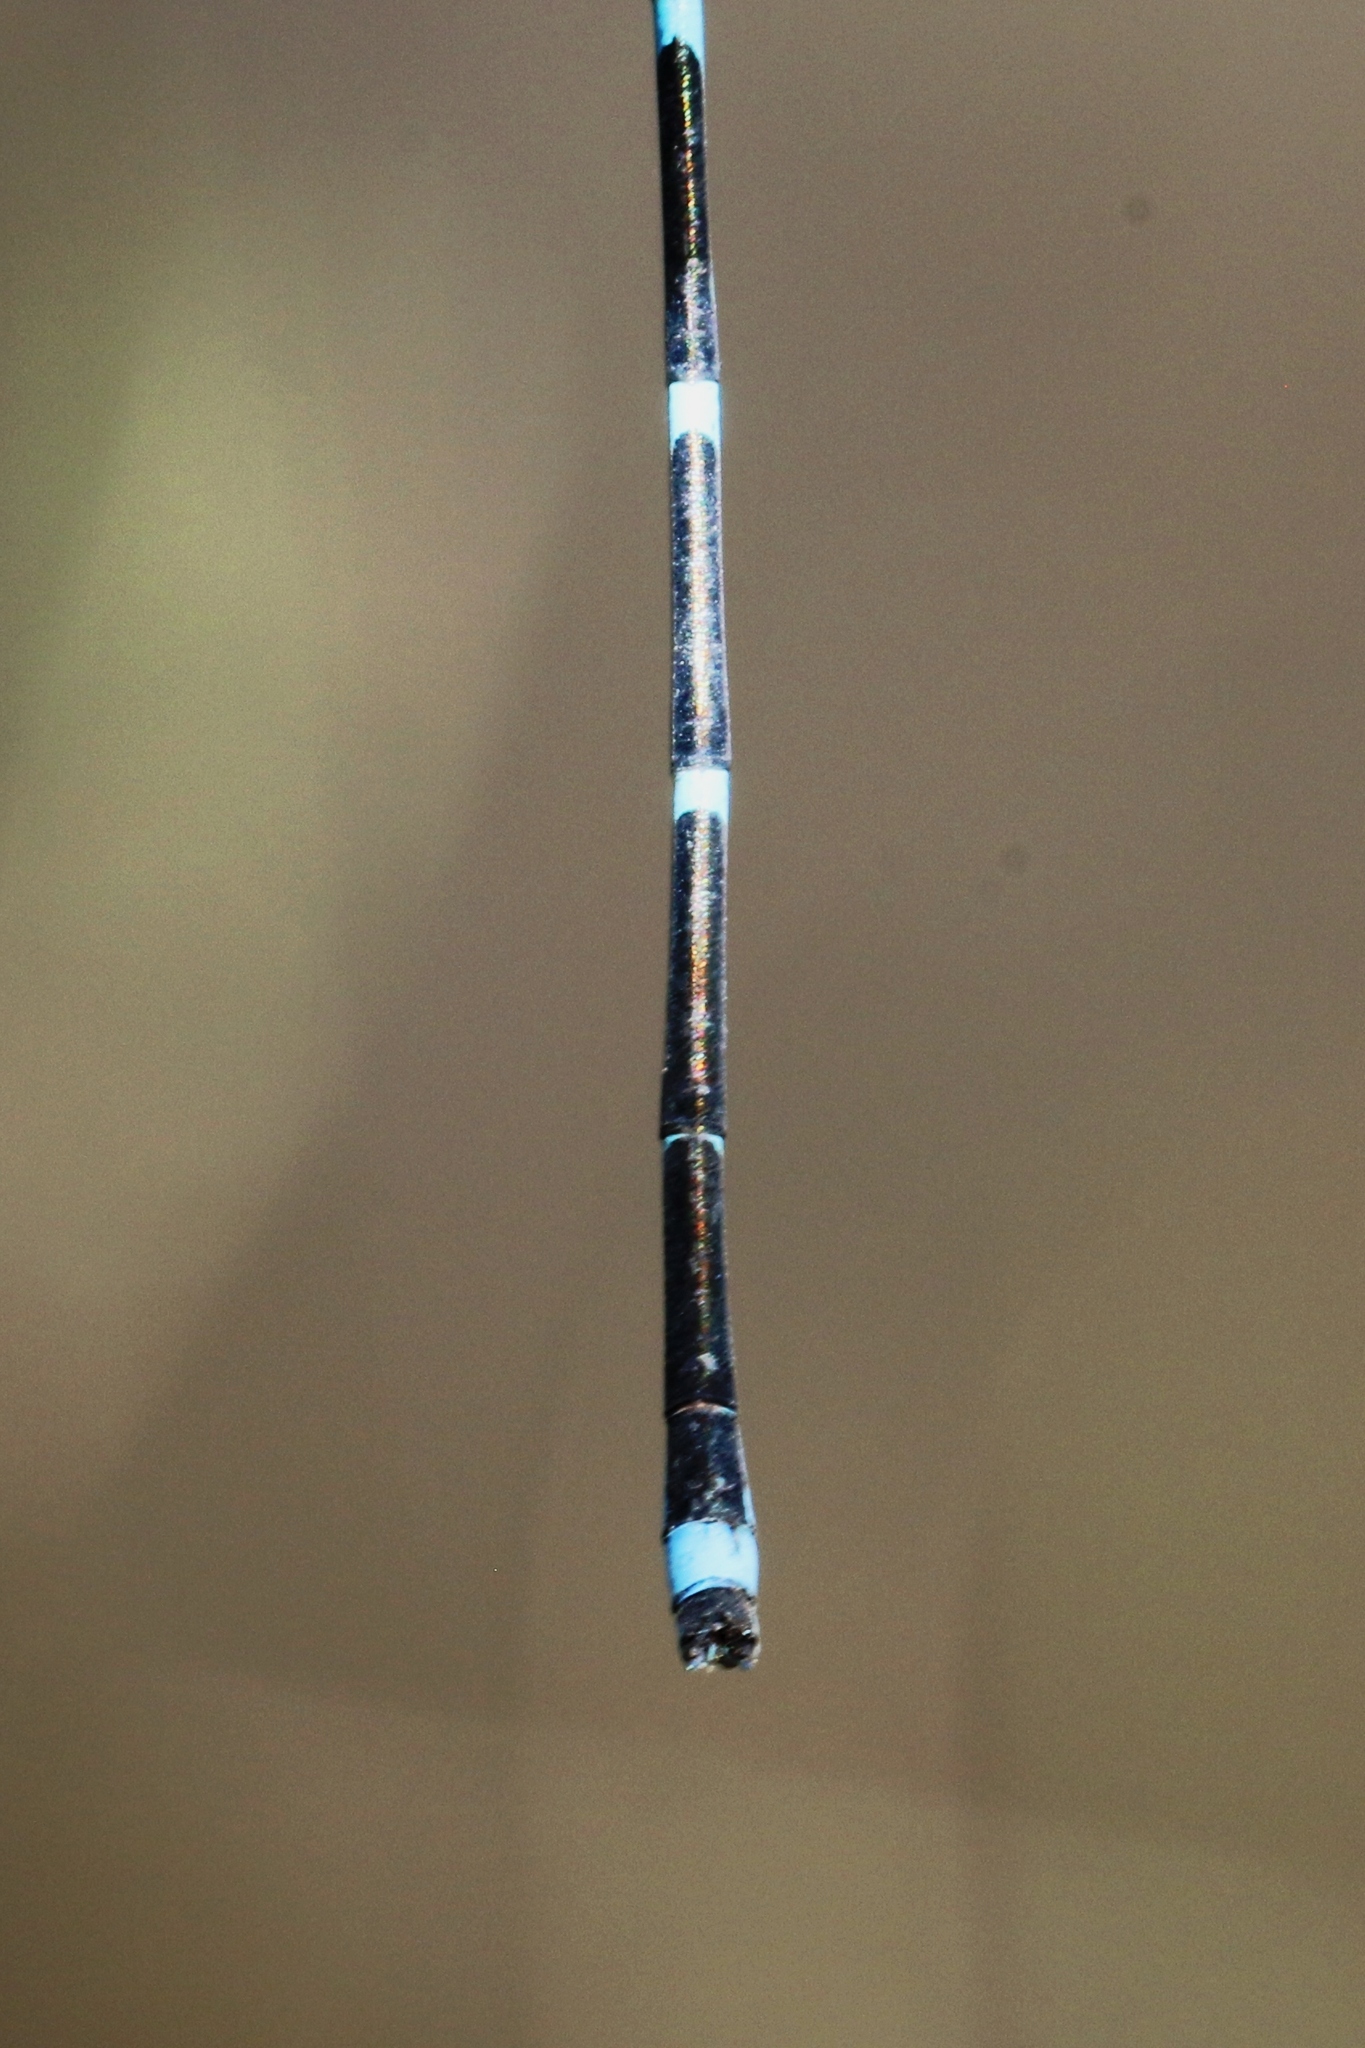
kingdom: Animalia
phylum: Arthropoda
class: Insecta
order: Odonata
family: Coenagrionidae
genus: Enallagma
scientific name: Enallagma exsulans
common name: Stream bluet
